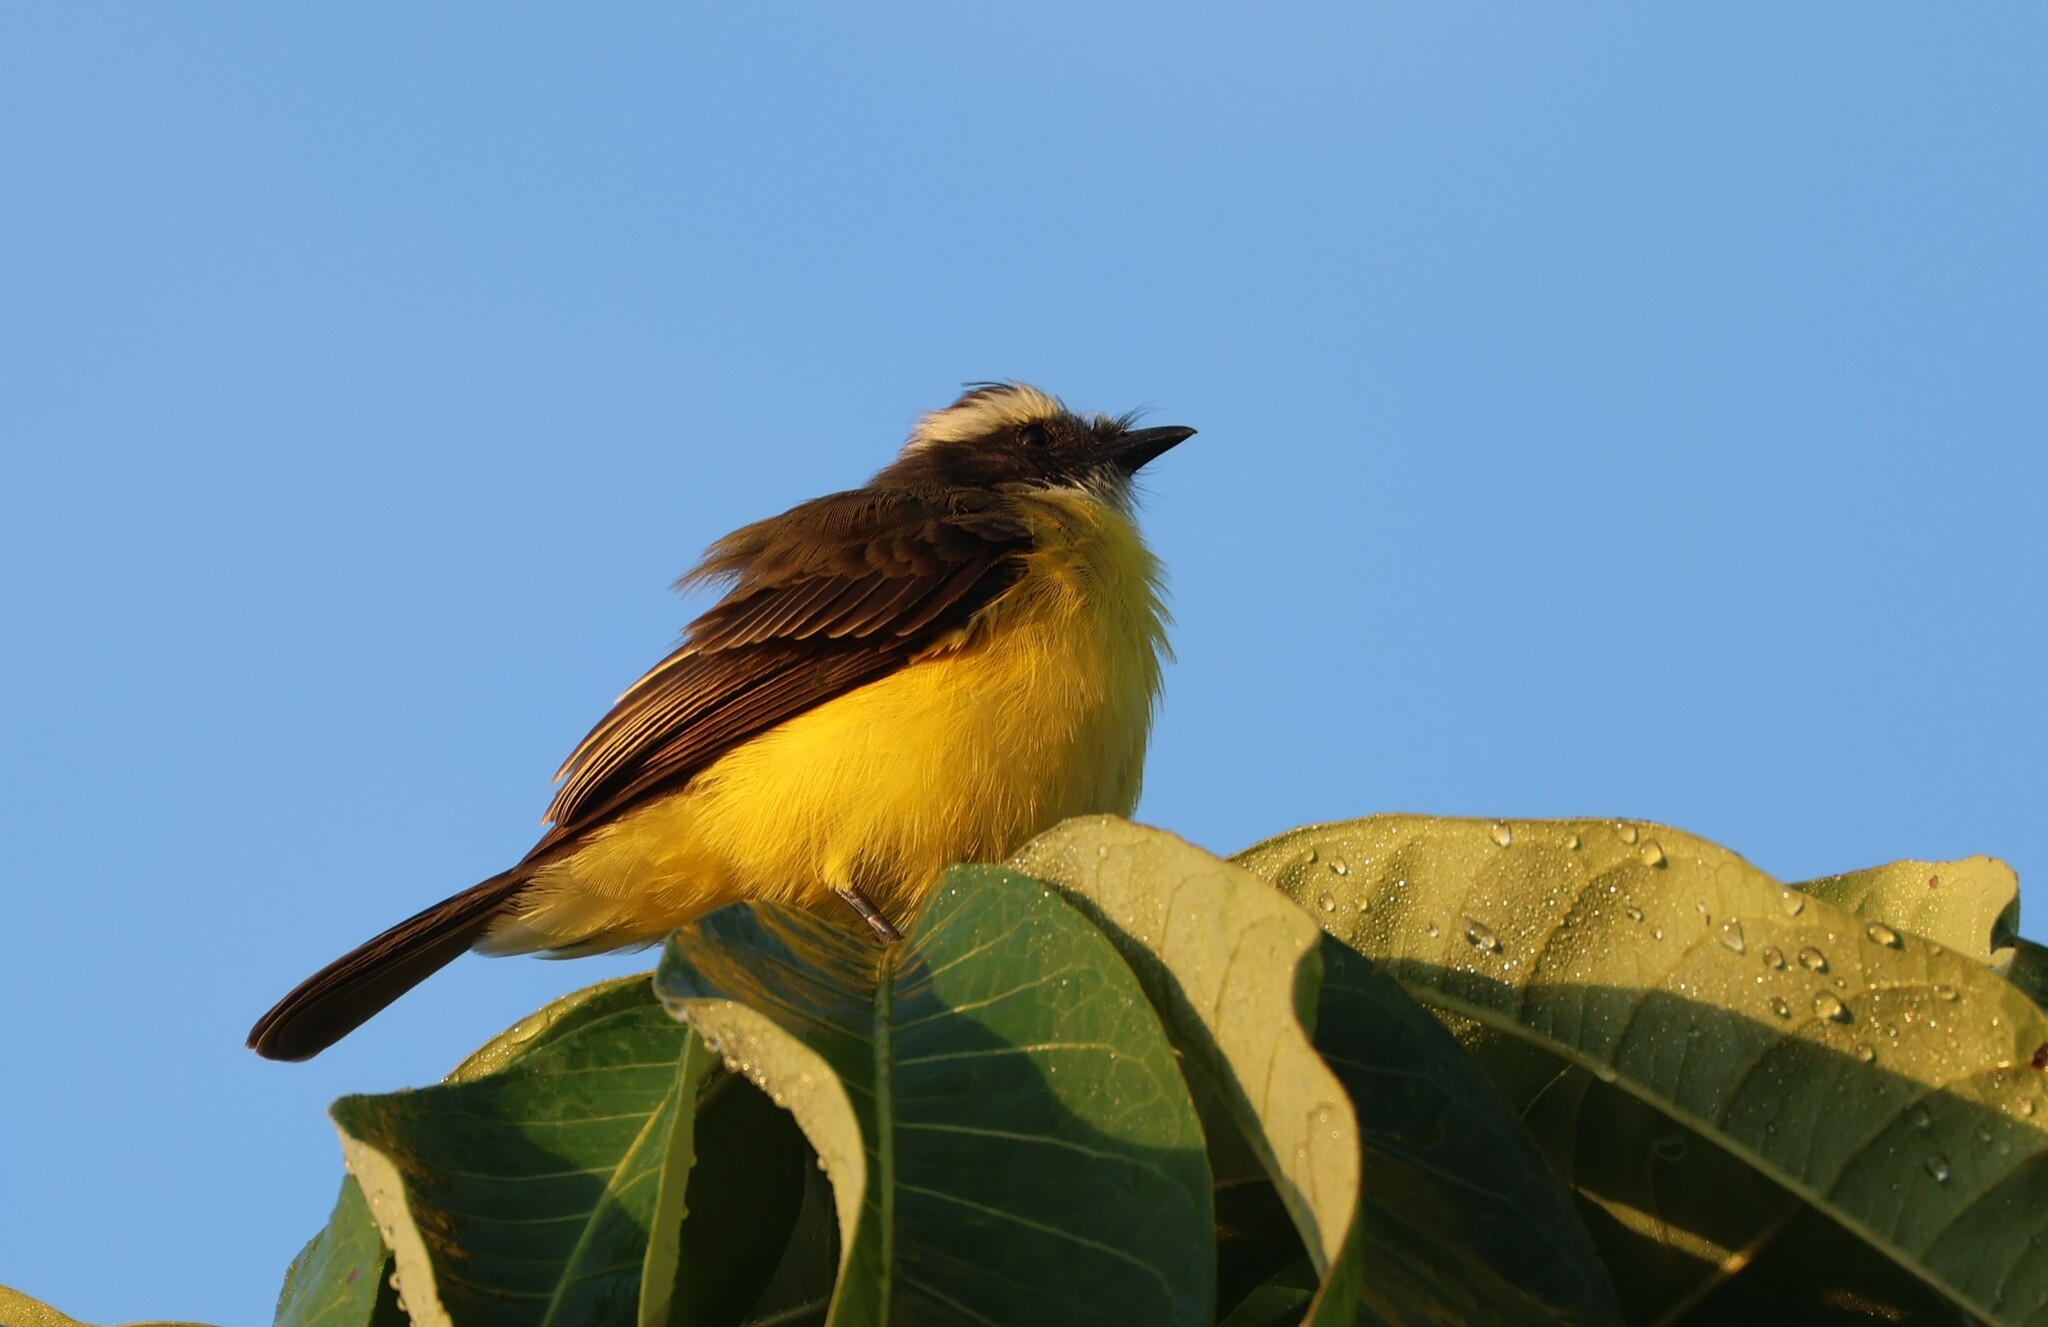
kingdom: Animalia
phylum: Chordata
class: Aves
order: Passeriformes
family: Tyrannidae
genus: Myiozetetes
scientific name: Myiozetetes similis
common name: Social flycatcher
